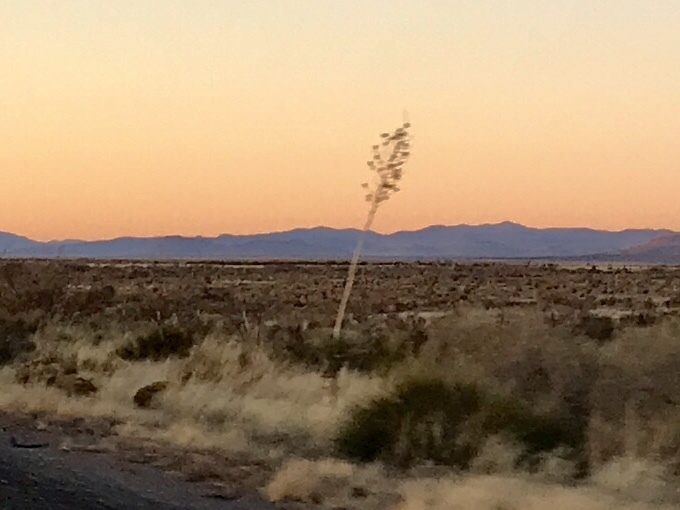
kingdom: Plantae
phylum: Tracheophyta
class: Liliopsida
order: Asparagales
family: Asparagaceae
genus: Yucca
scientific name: Yucca elata
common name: Palmella
